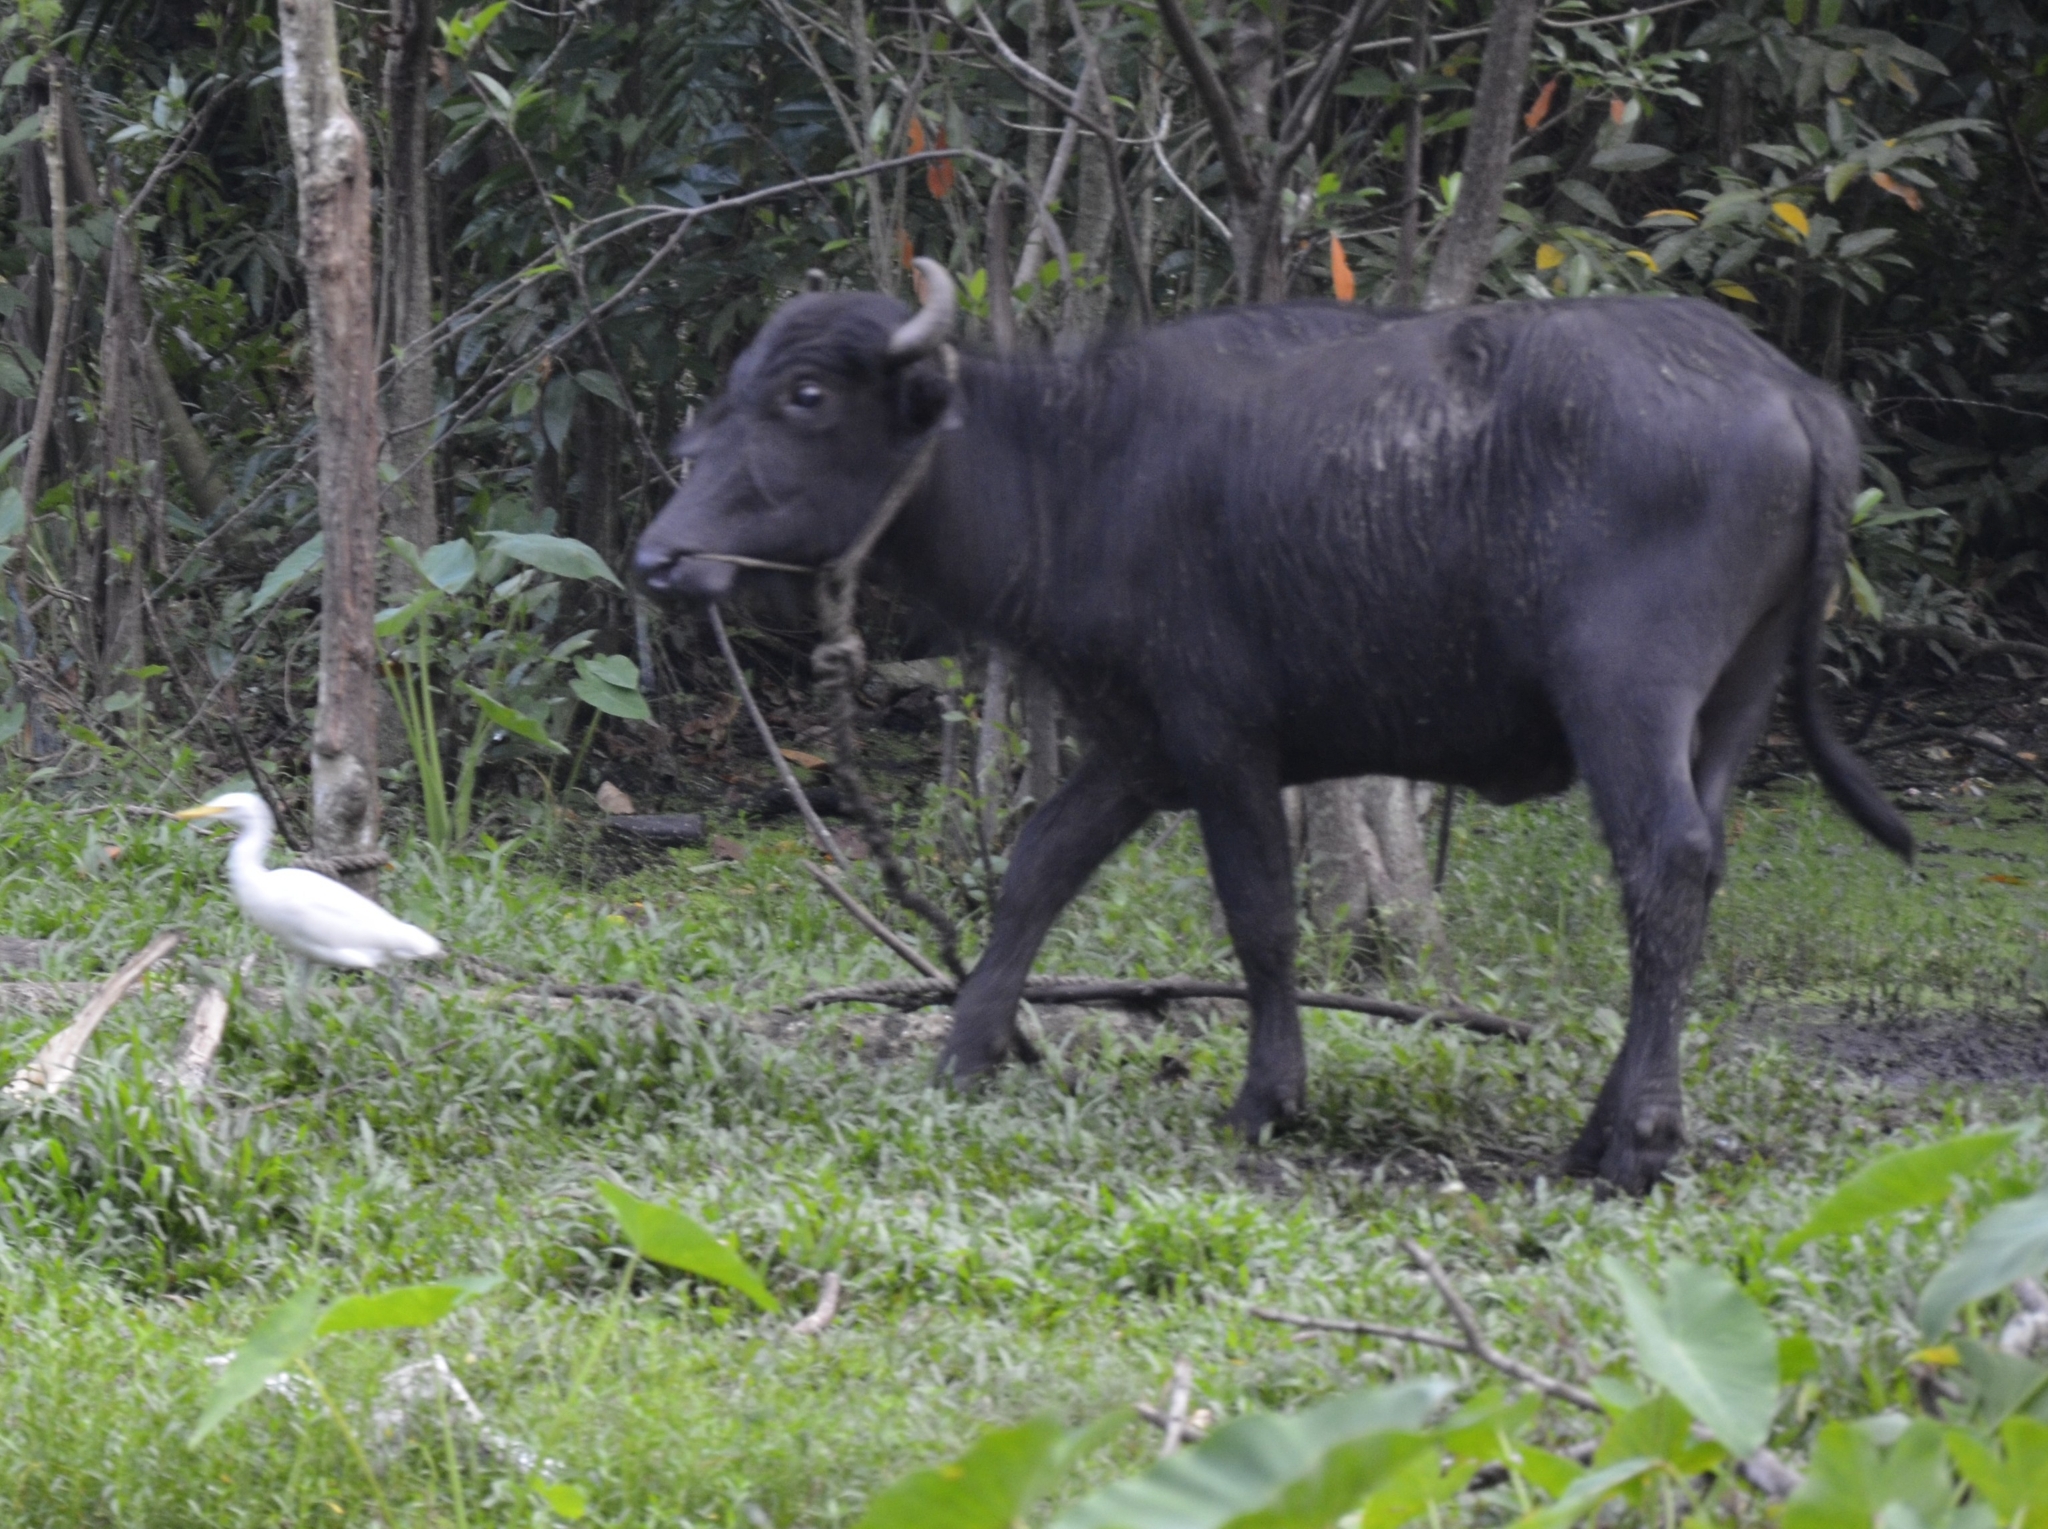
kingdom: Animalia
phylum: Chordata
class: Aves
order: Pelecaniformes
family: Ardeidae
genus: Bubulcus
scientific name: Bubulcus coromandus
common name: Eastern cattle egret
